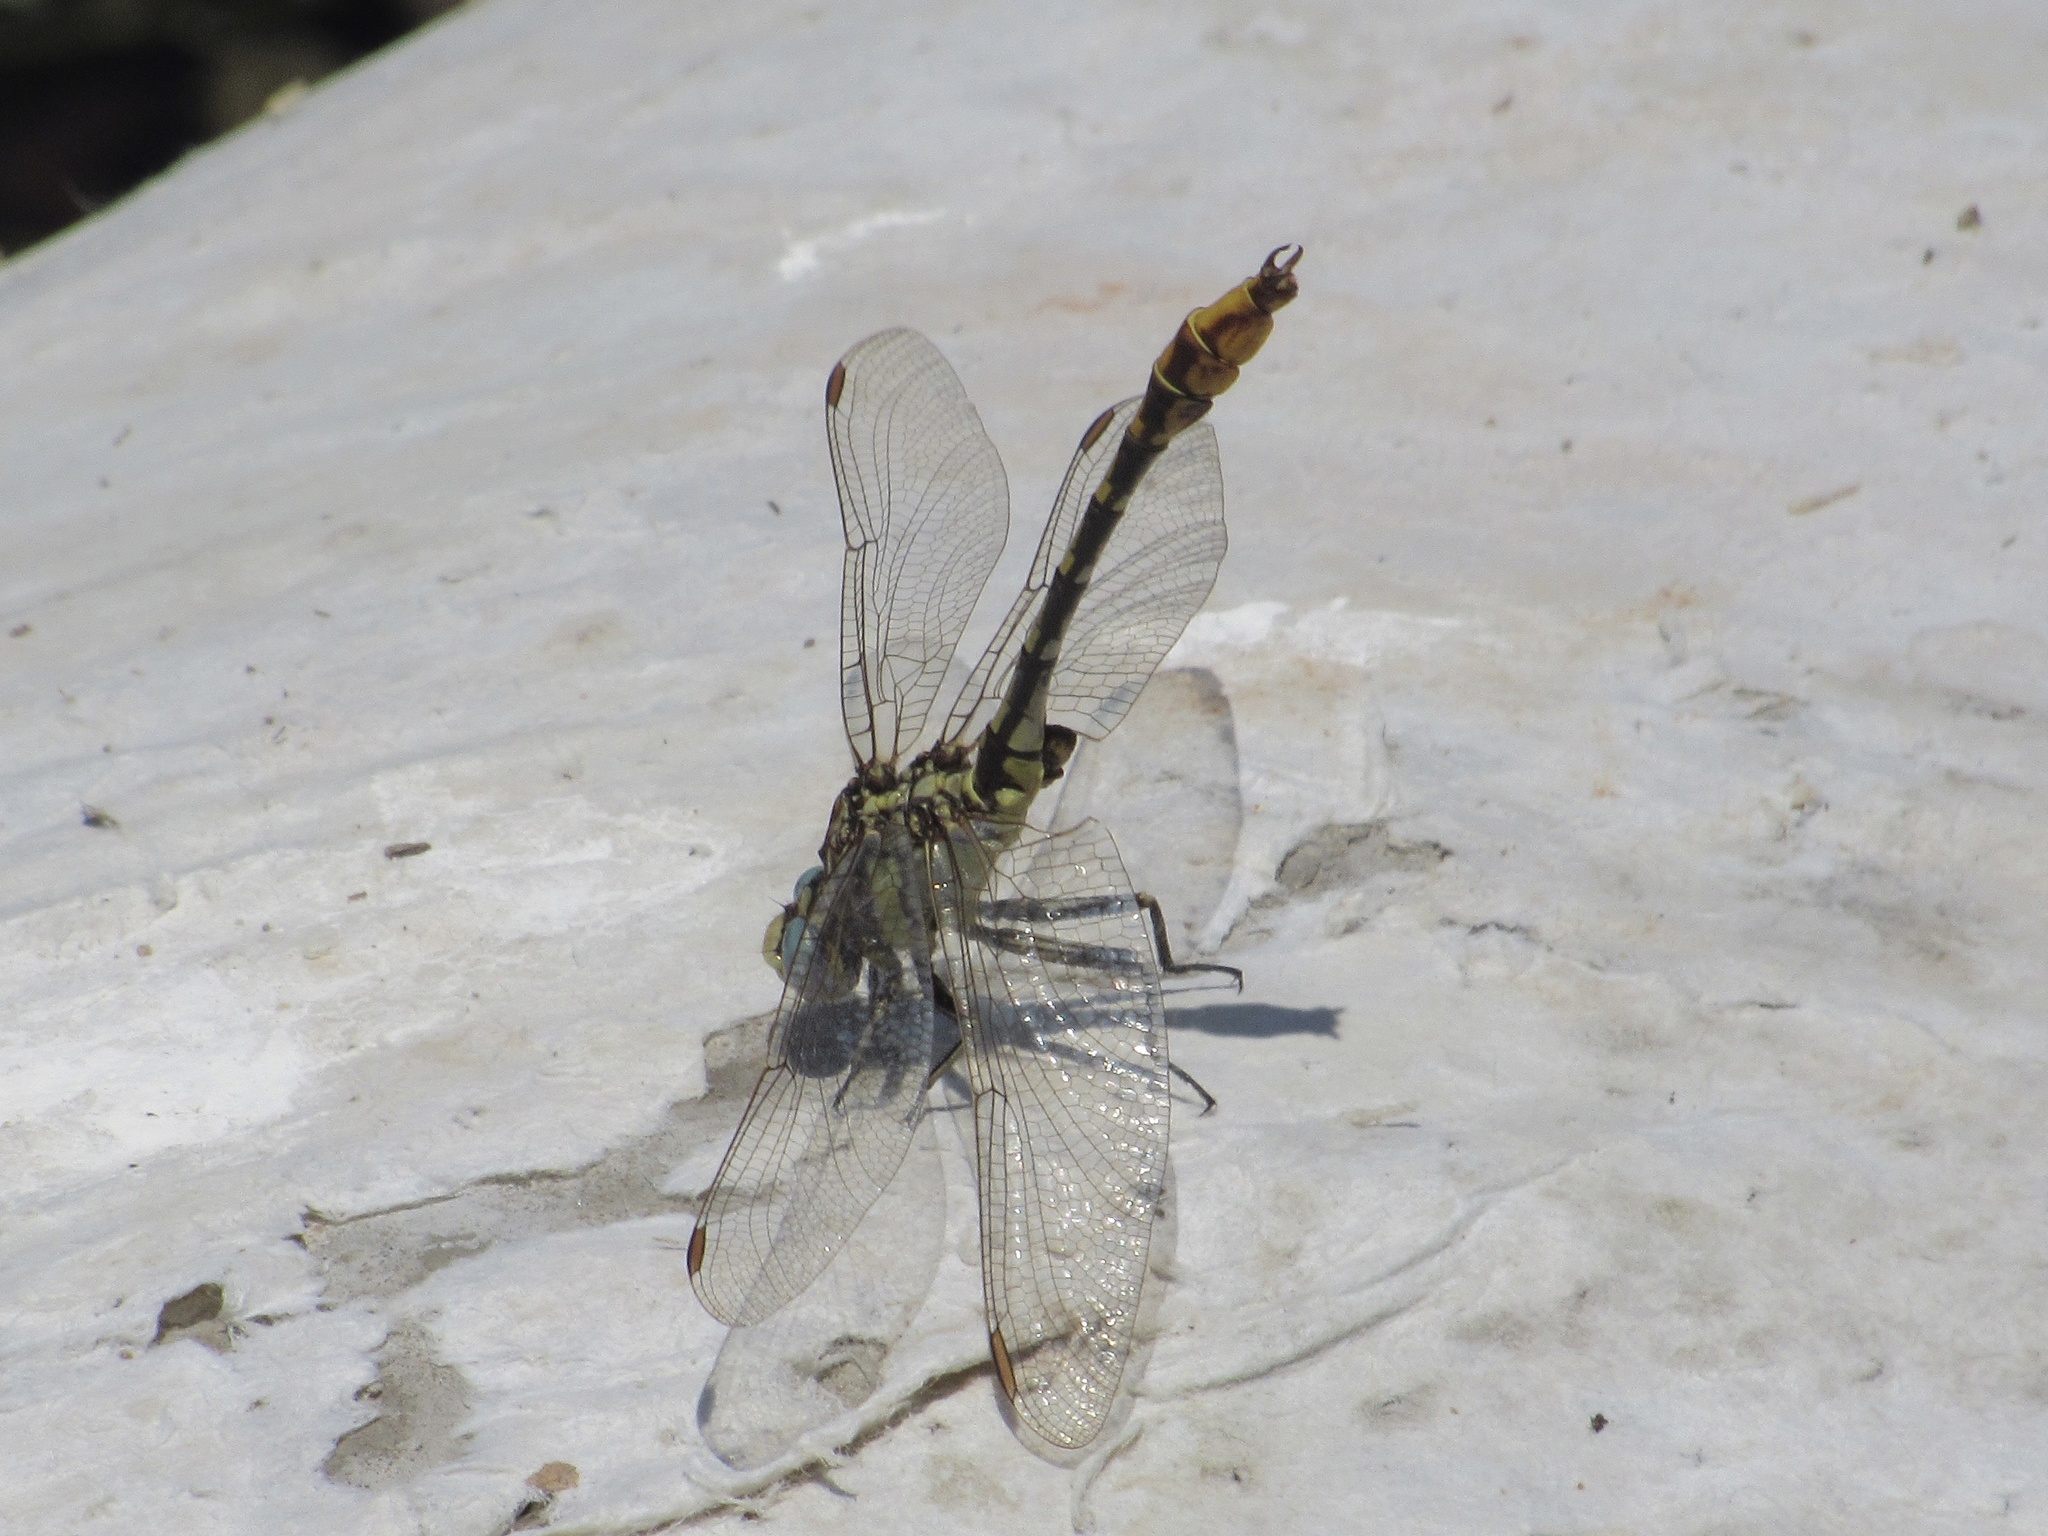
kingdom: Animalia
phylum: Arthropoda
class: Insecta
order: Odonata
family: Gomphidae
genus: Phanogomphus
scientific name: Phanogomphus militaris
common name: Sulphur-tipped clubtail
